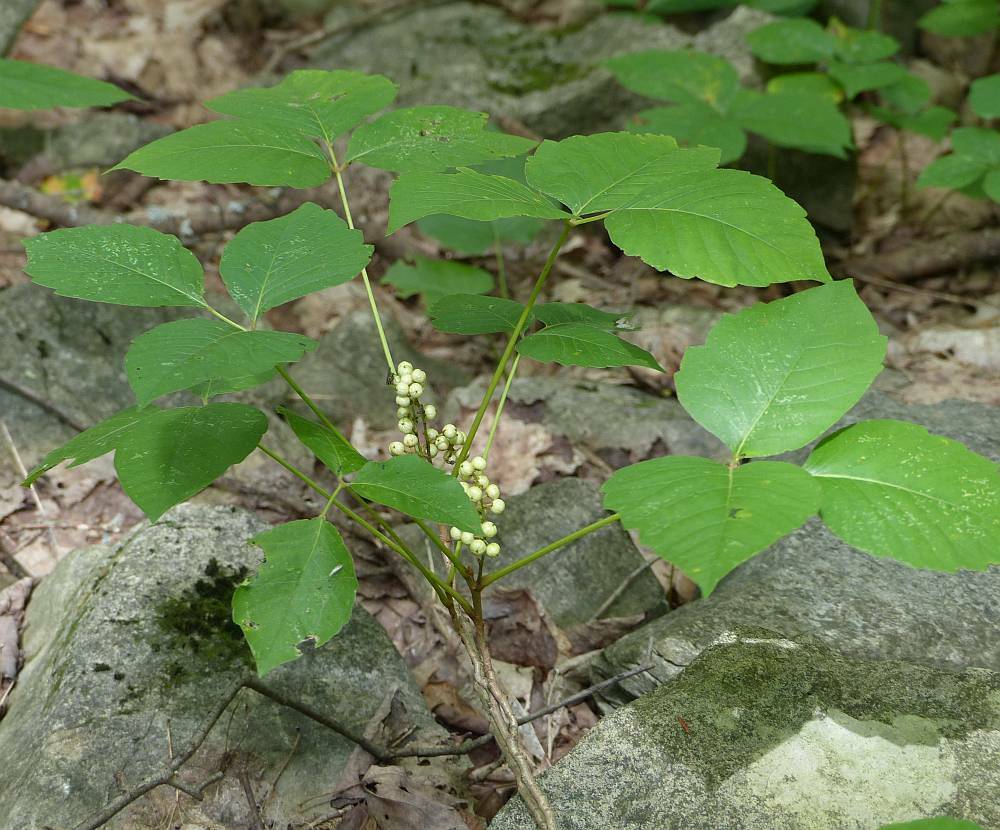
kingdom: Plantae
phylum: Tracheophyta
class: Magnoliopsida
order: Sapindales
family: Anacardiaceae
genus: Toxicodendron
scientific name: Toxicodendron radicans
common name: Poison ivy
